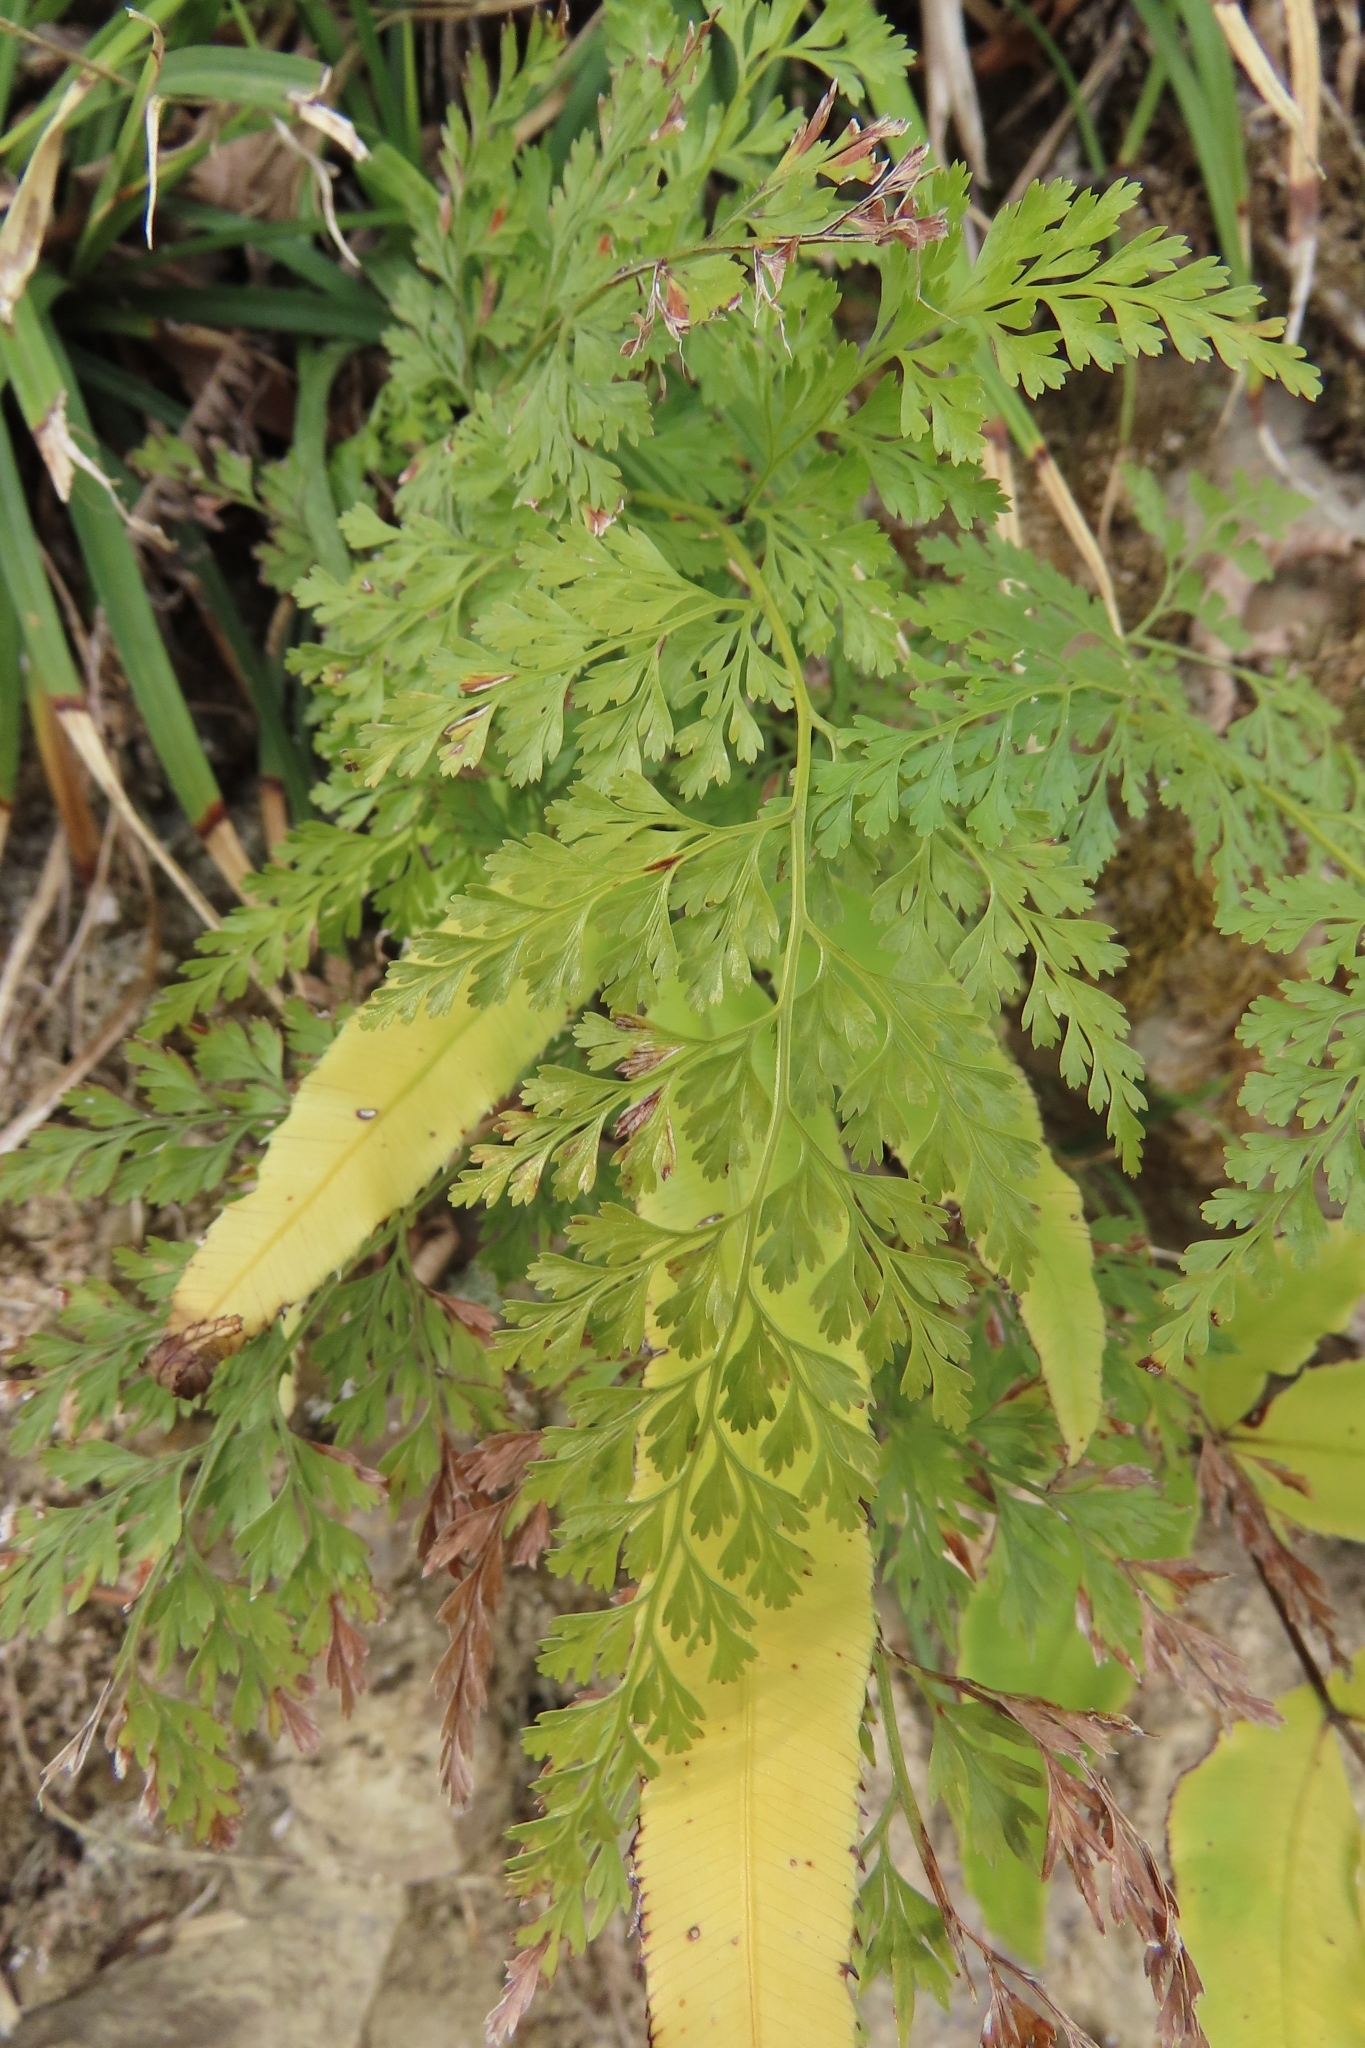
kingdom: Plantae
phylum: Tracheophyta
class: Polypodiopsida
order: Polypodiales
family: Lindsaeaceae
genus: Odontosoria
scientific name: Odontosoria chinensis
